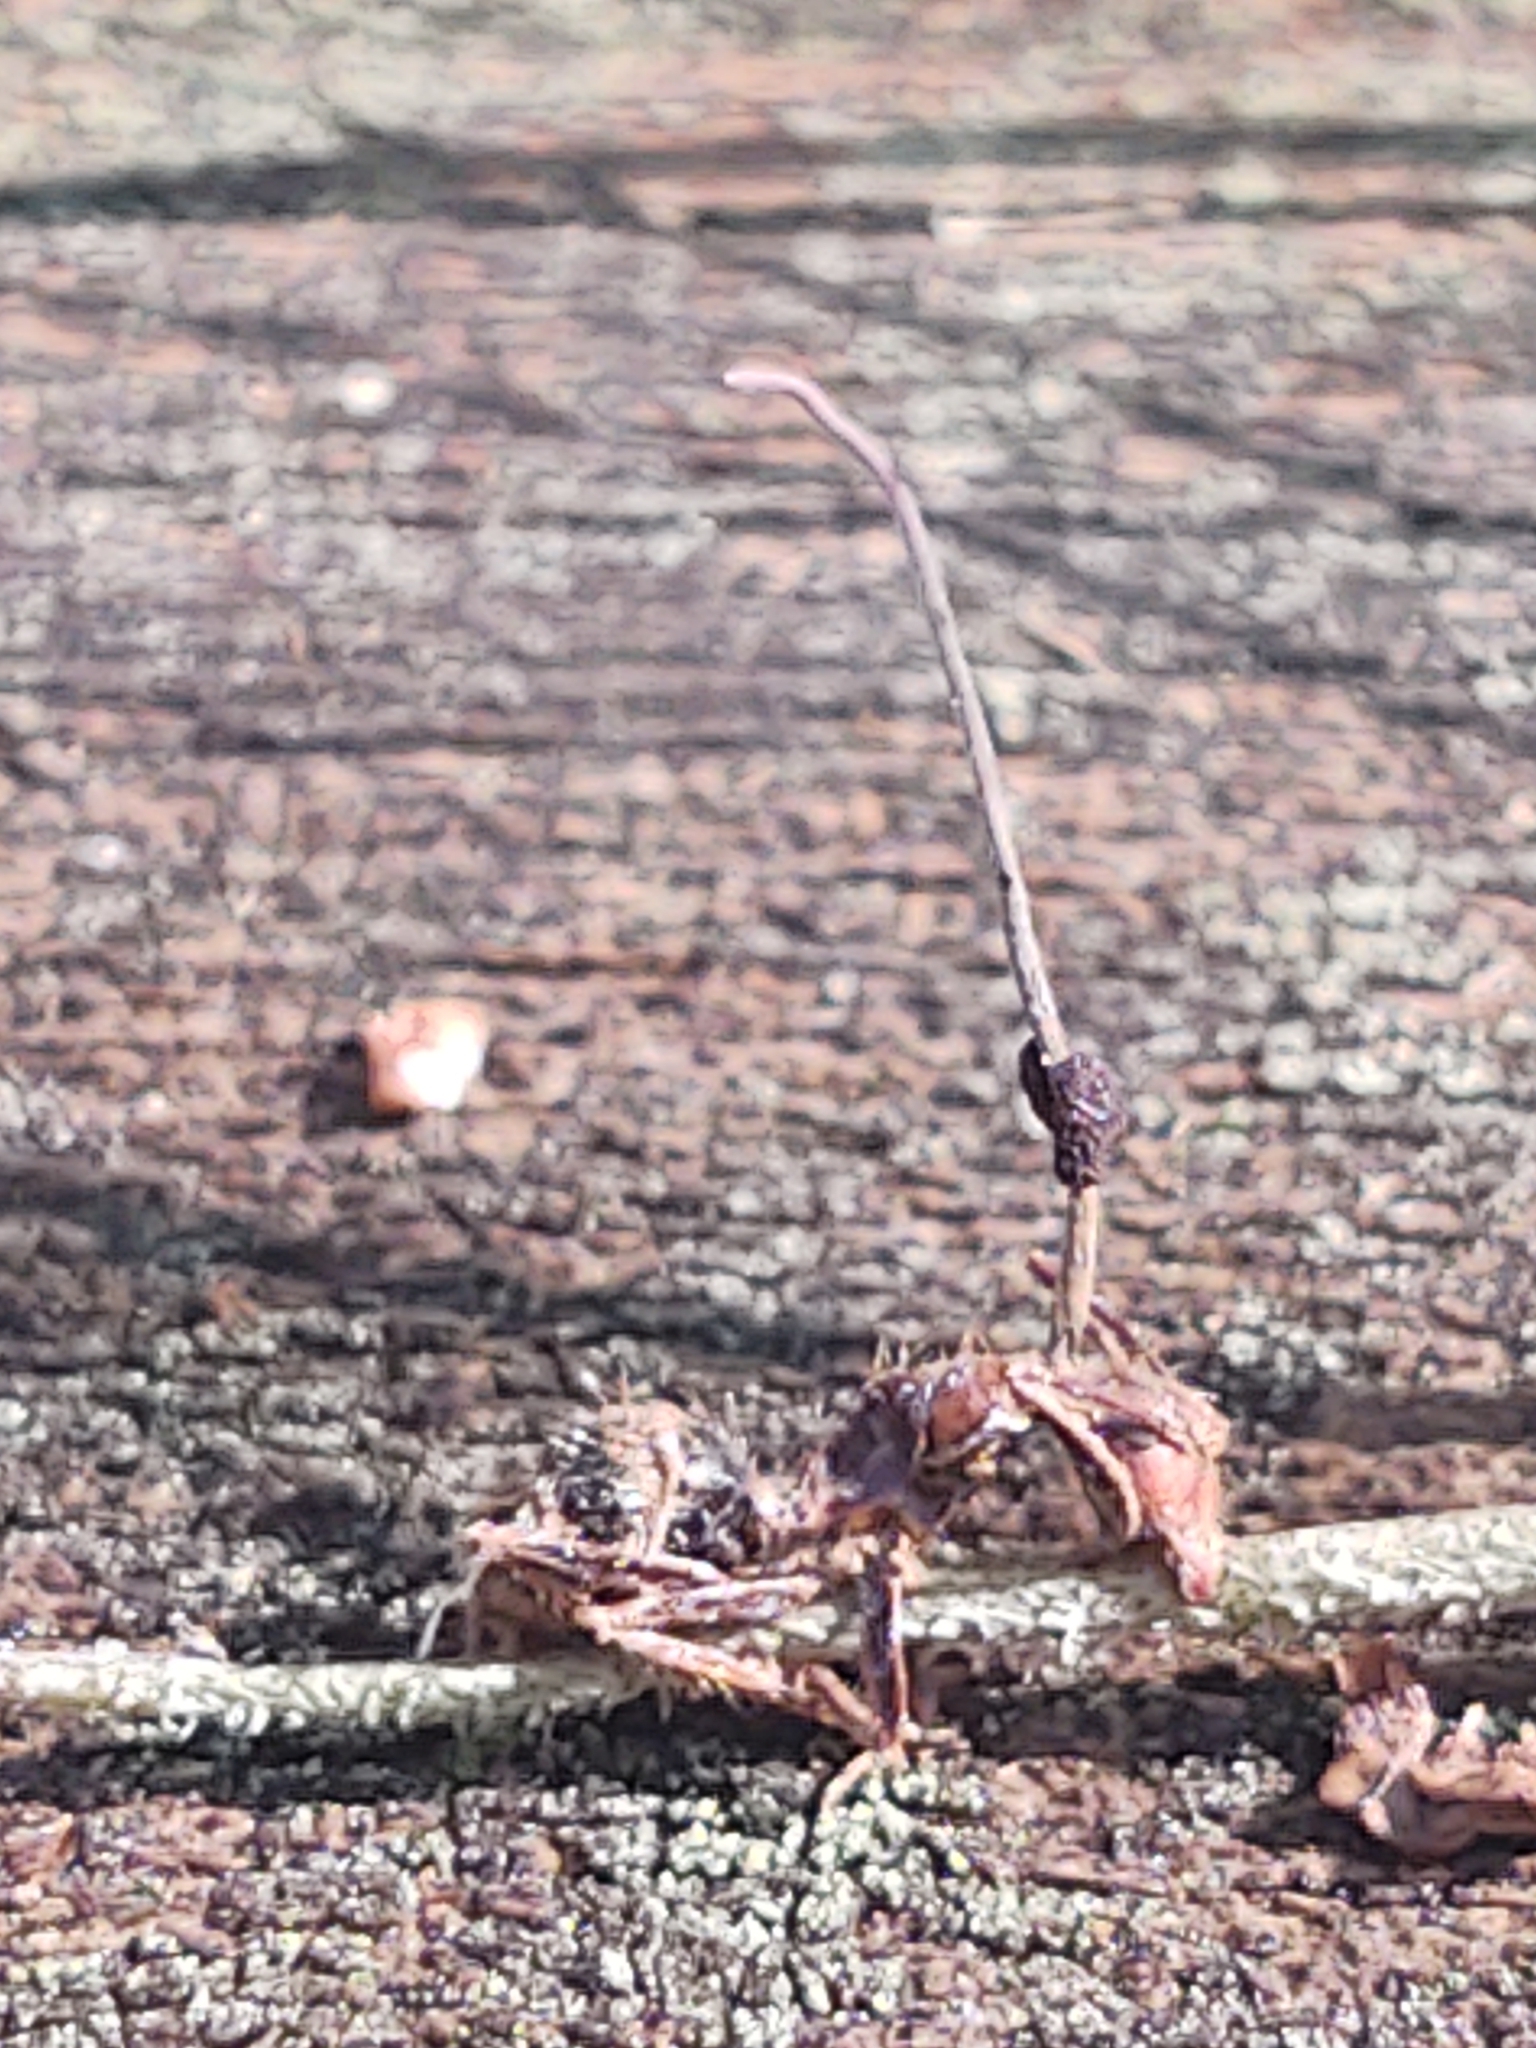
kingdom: Fungi
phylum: Ascomycota
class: Sordariomycetes
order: Hypocreales
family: Ophiocordycipitaceae
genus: Ophiocordyceps
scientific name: Ophiocordyceps camponoti-floridani
